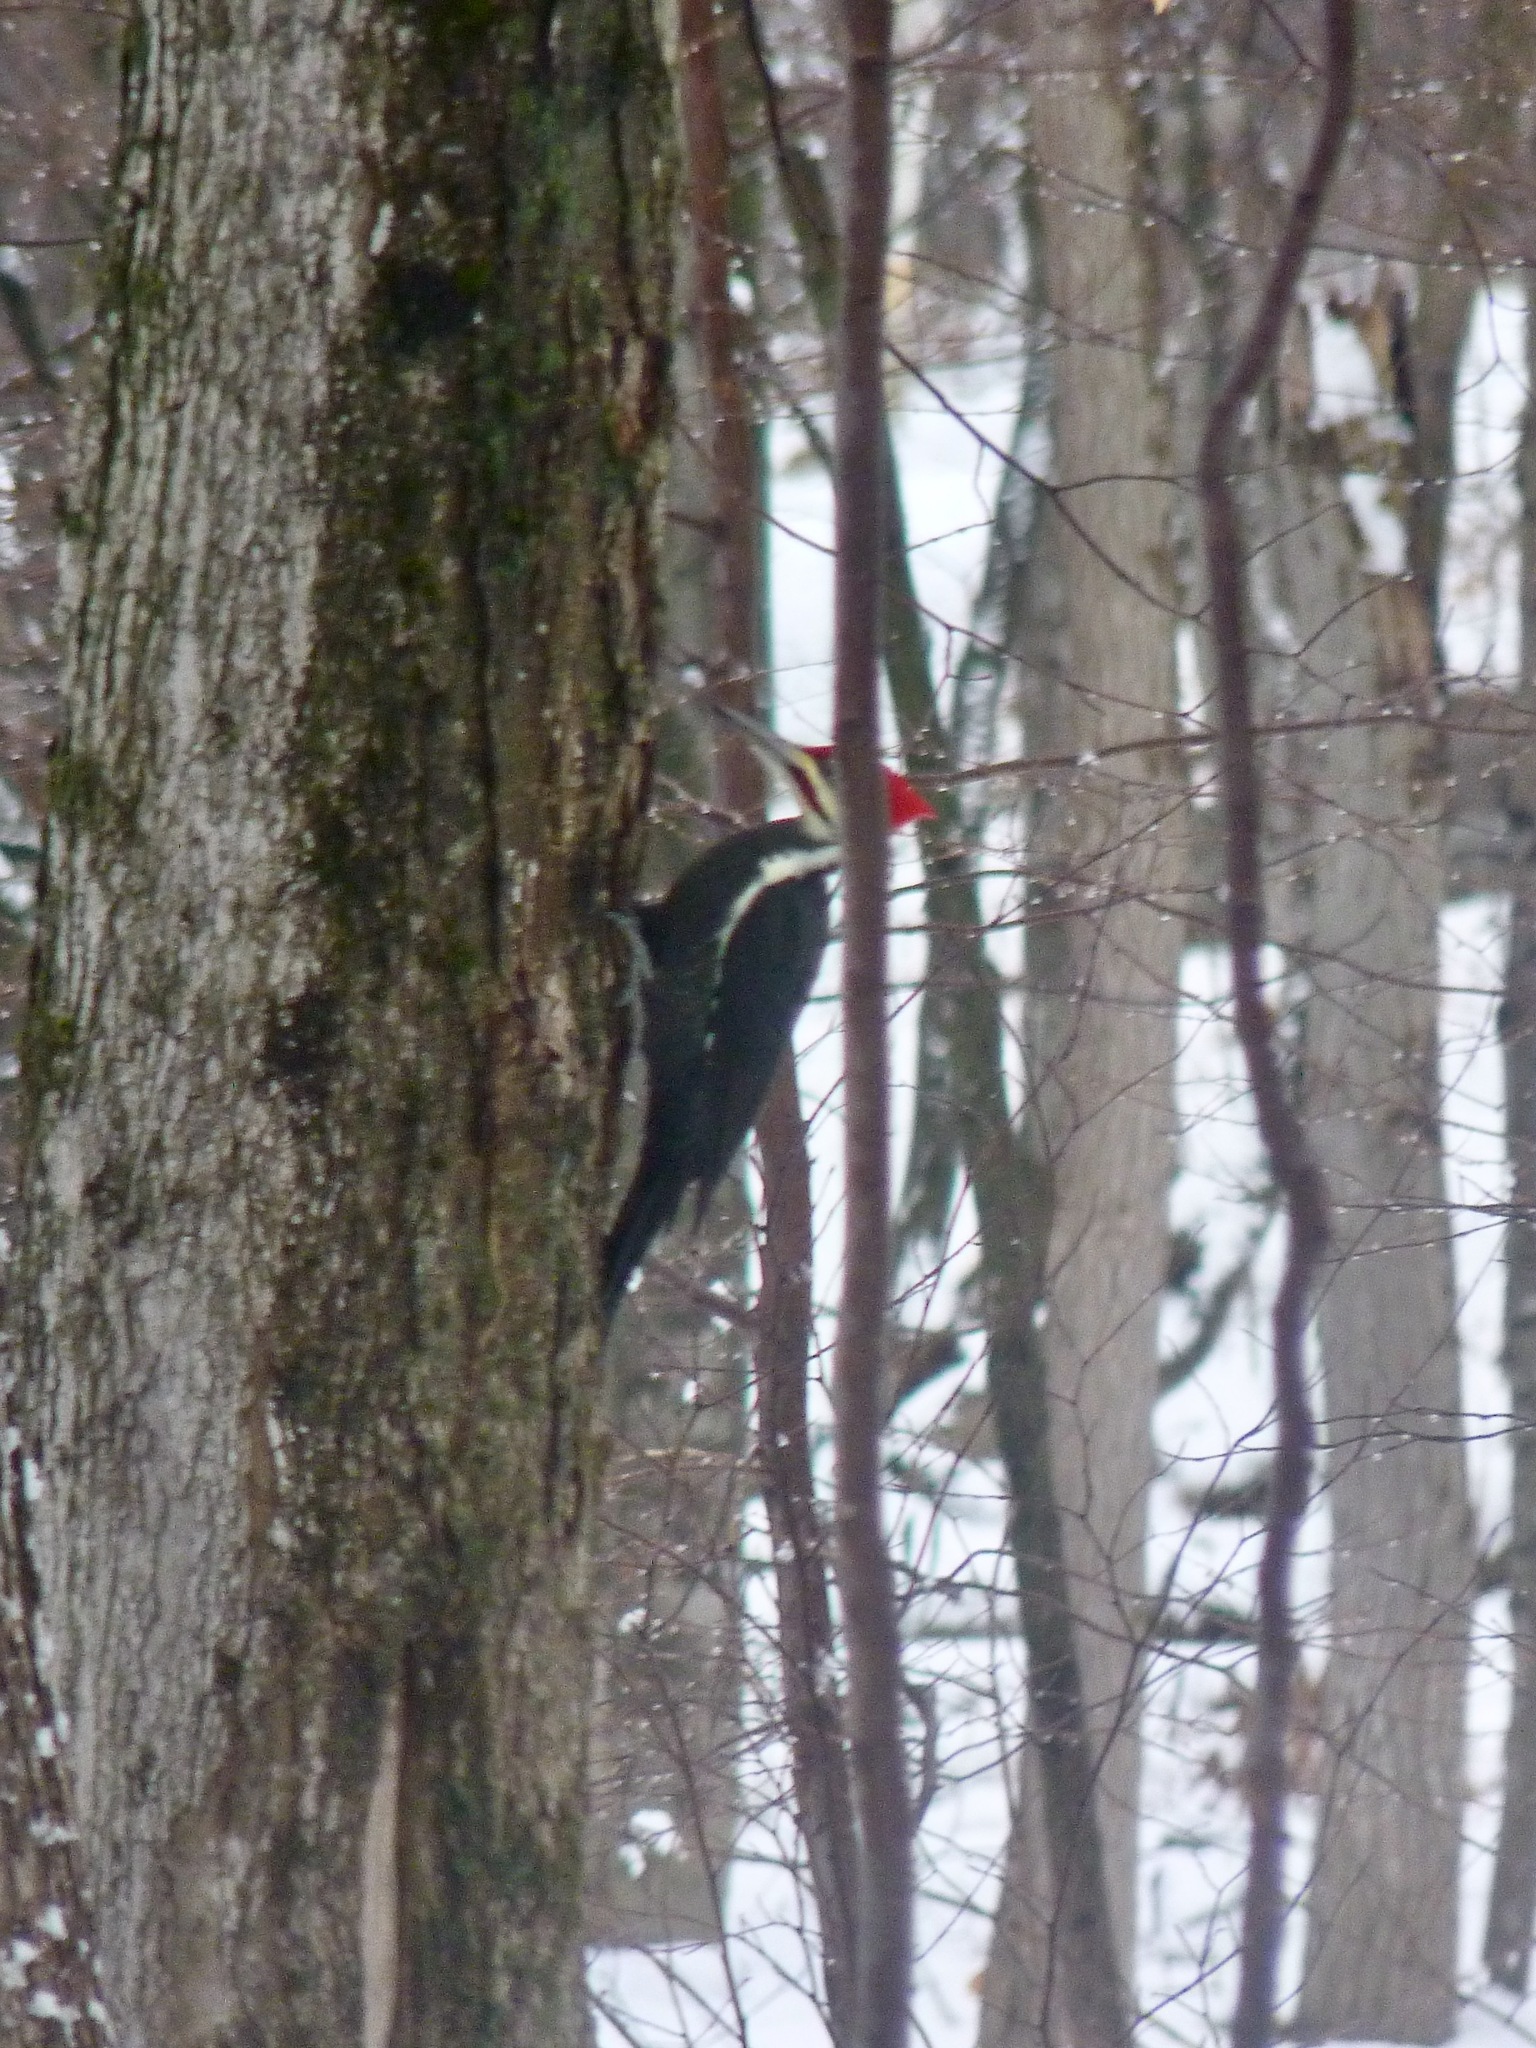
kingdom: Animalia
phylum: Chordata
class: Aves
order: Piciformes
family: Picidae
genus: Dryocopus
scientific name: Dryocopus pileatus
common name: Pileated woodpecker
